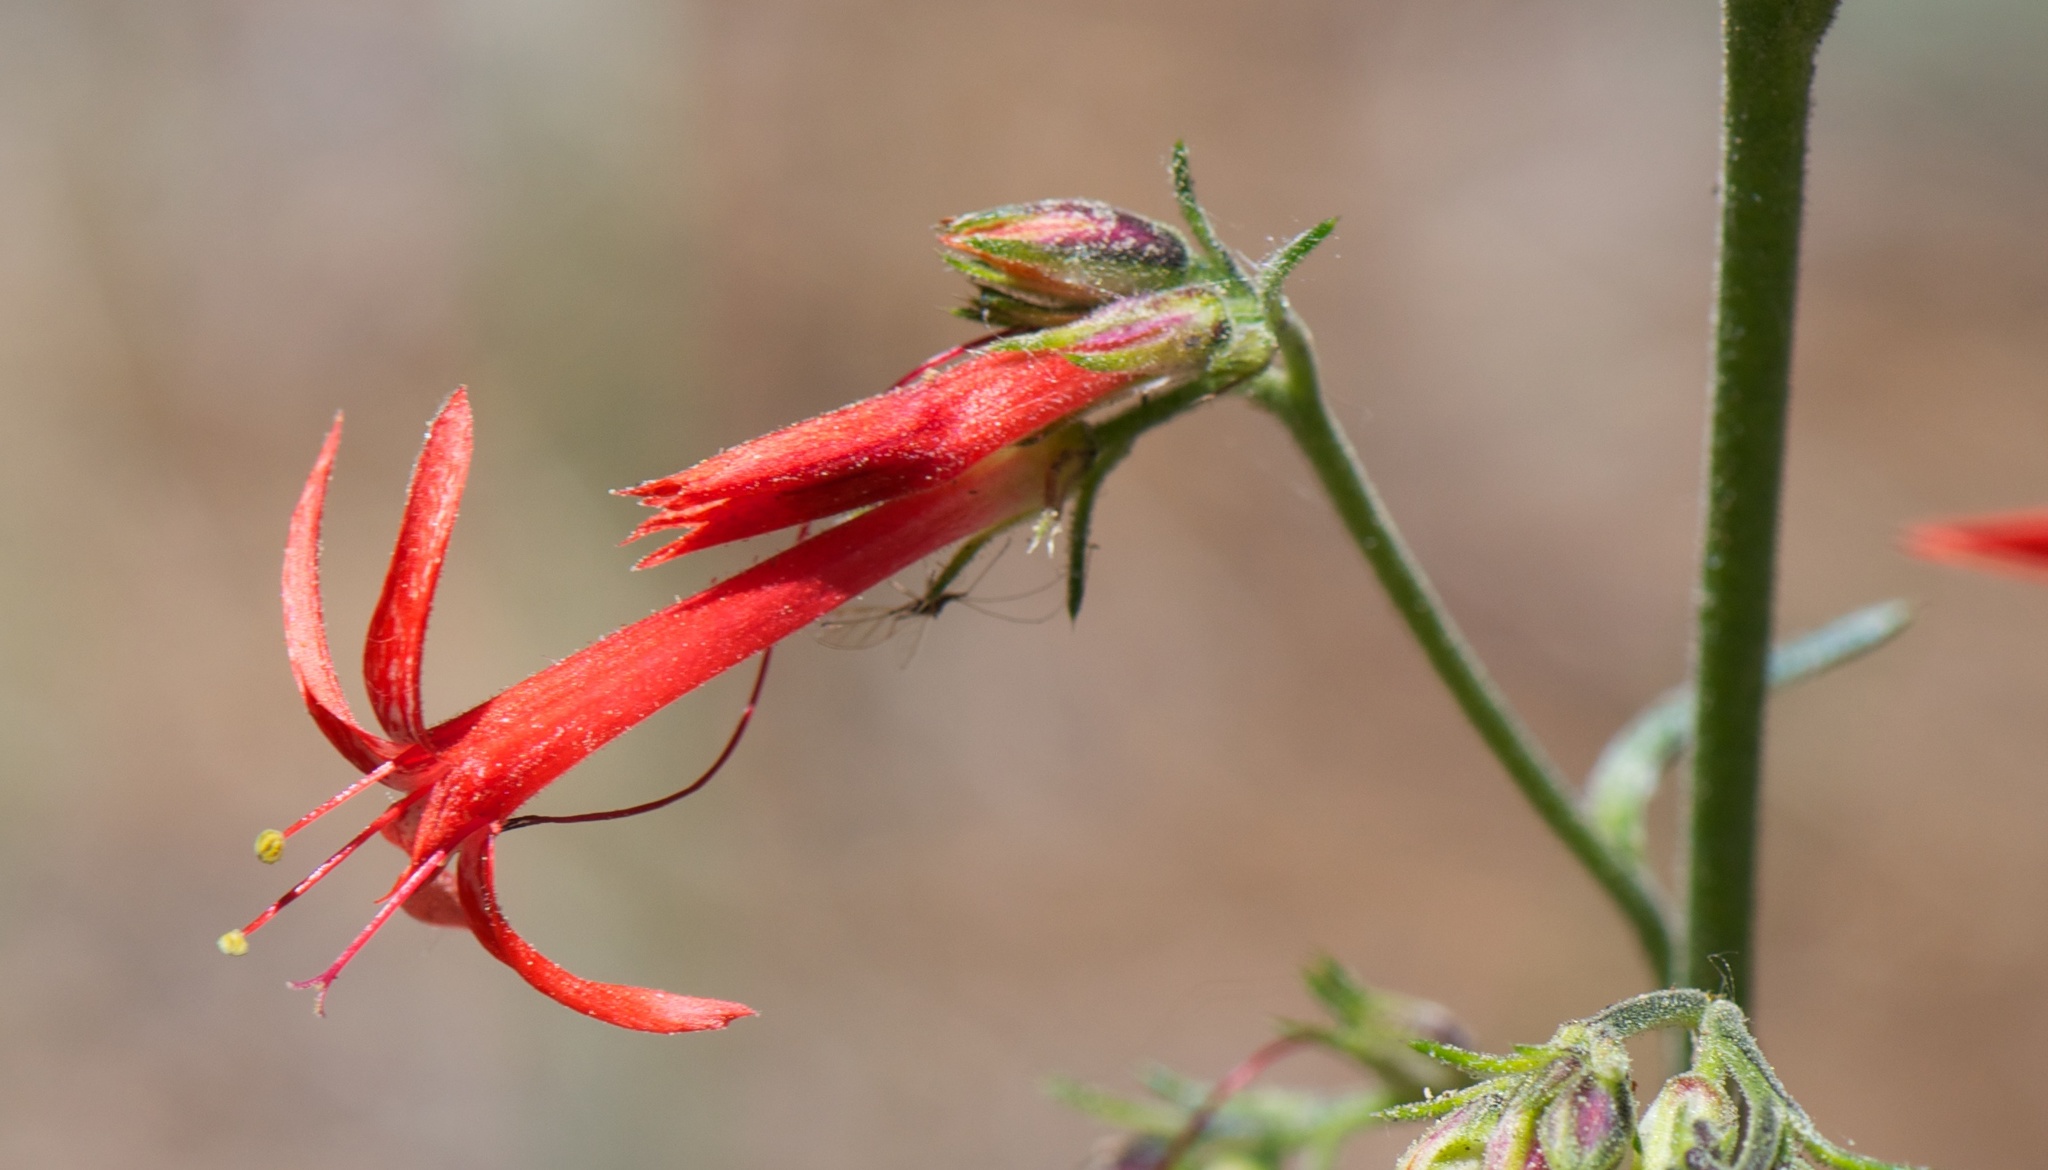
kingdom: Plantae
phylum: Tracheophyta
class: Magnoliopsida
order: Ericales
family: Polemoniaceae
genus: Ipomopsis
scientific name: Ipomopsis aggregata
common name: Scarlet gilia
